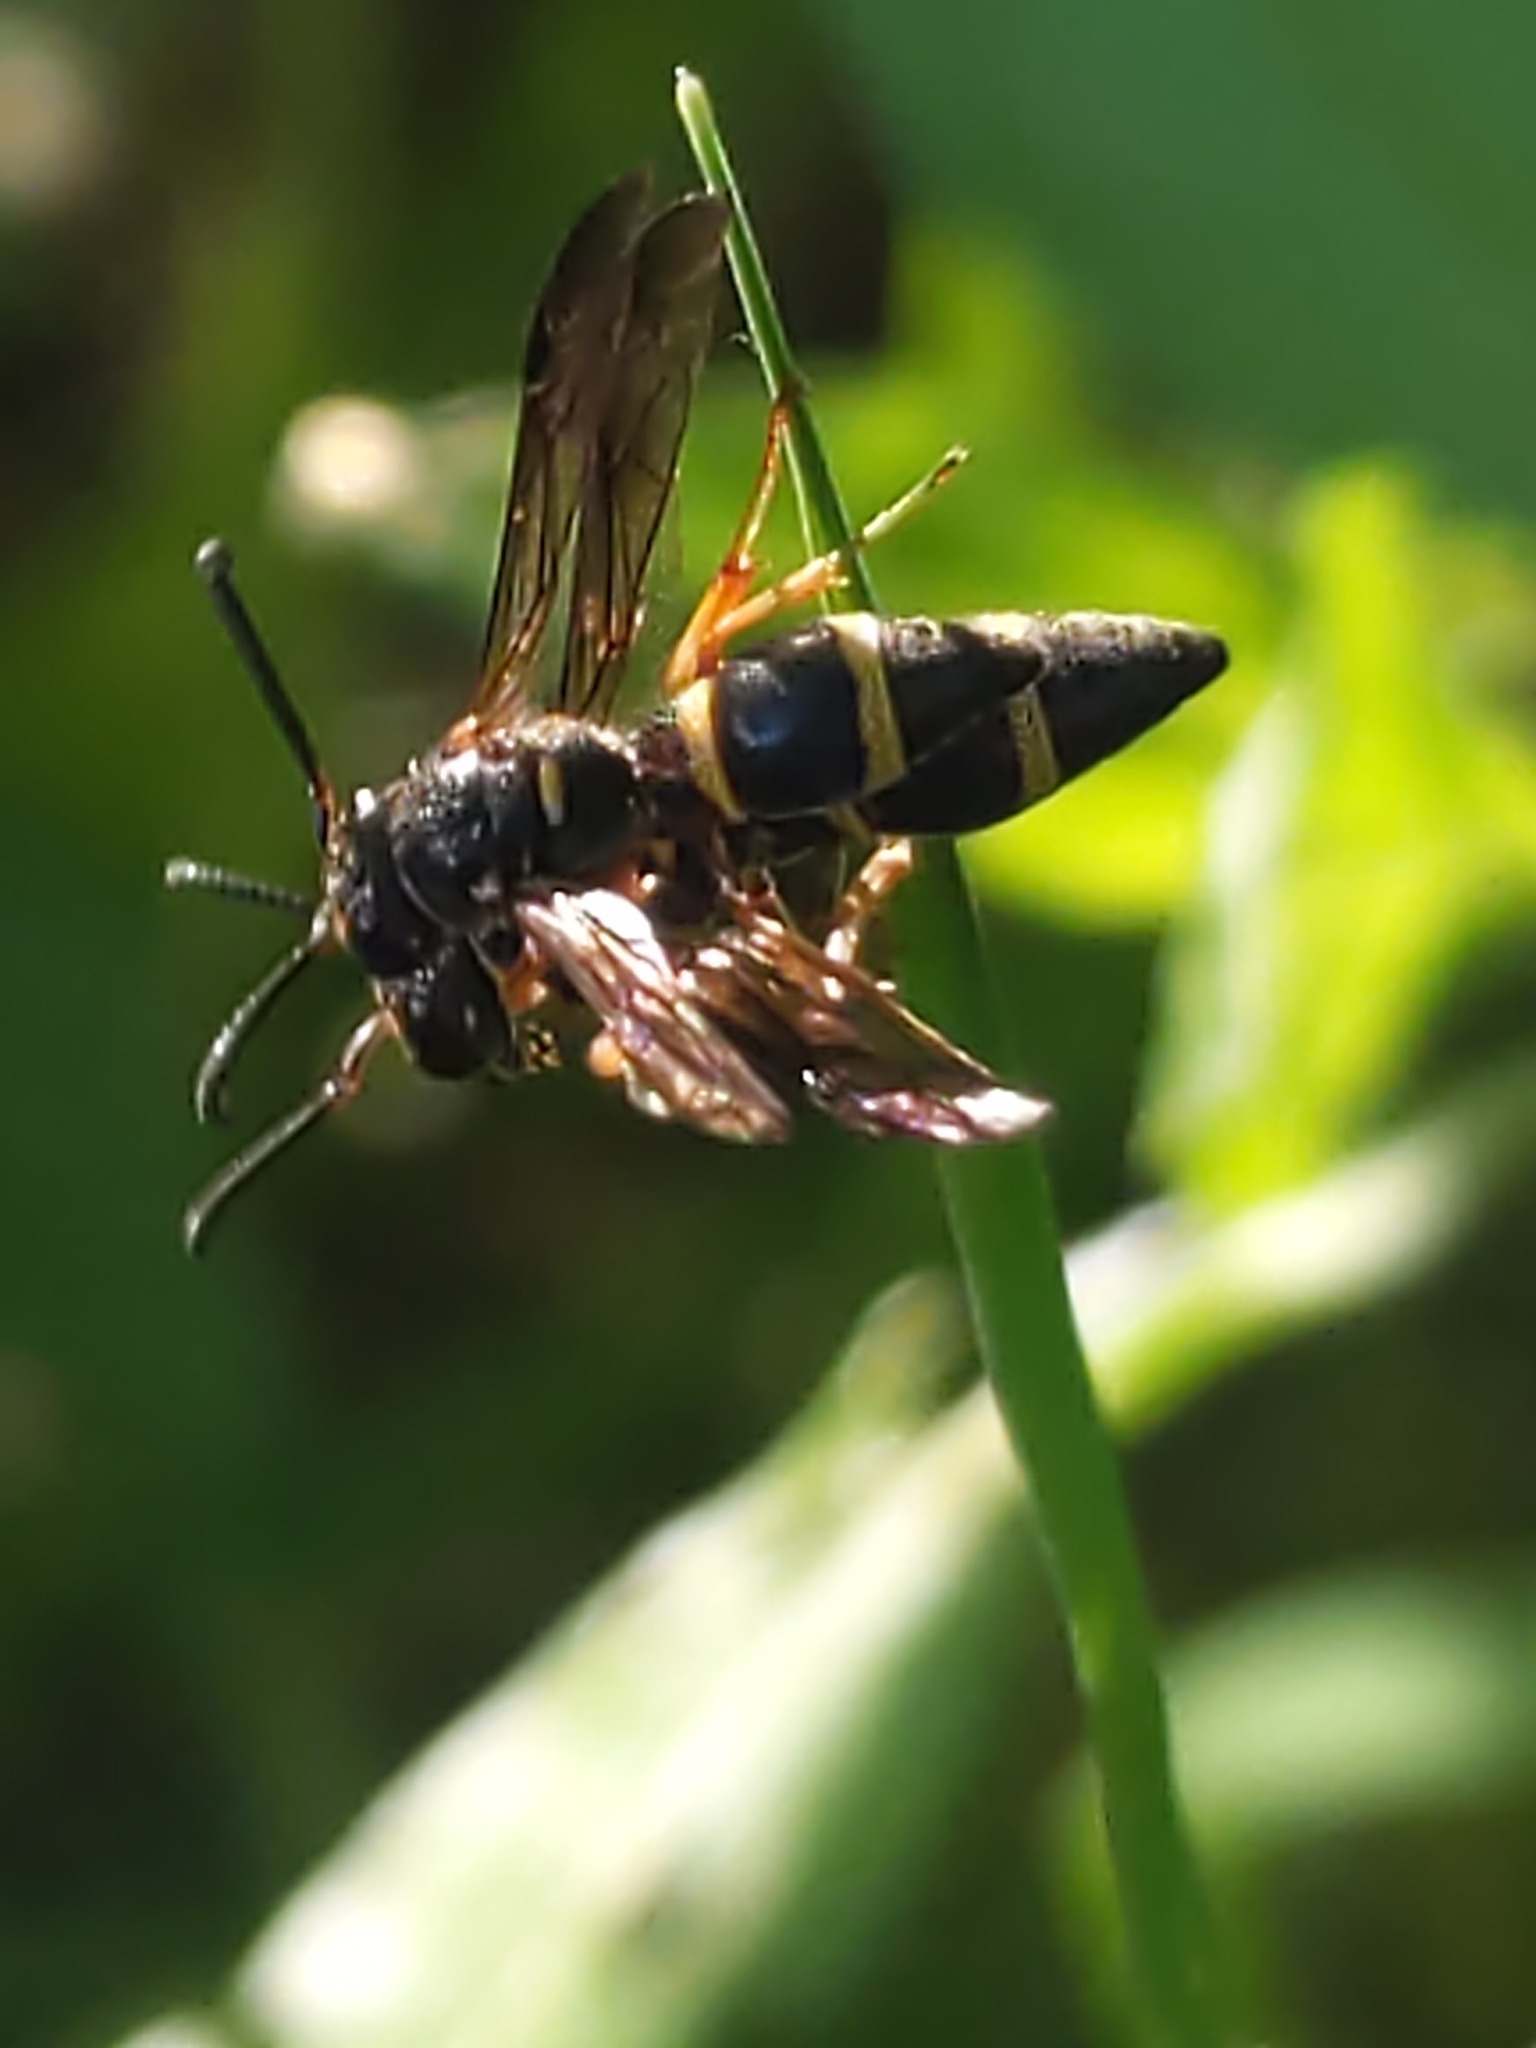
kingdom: Animalia
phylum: Arthropoda
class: Insecta
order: Hymenoptera
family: Eumenidae
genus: Parancistrocerus
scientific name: Parancistrocerus perennis
